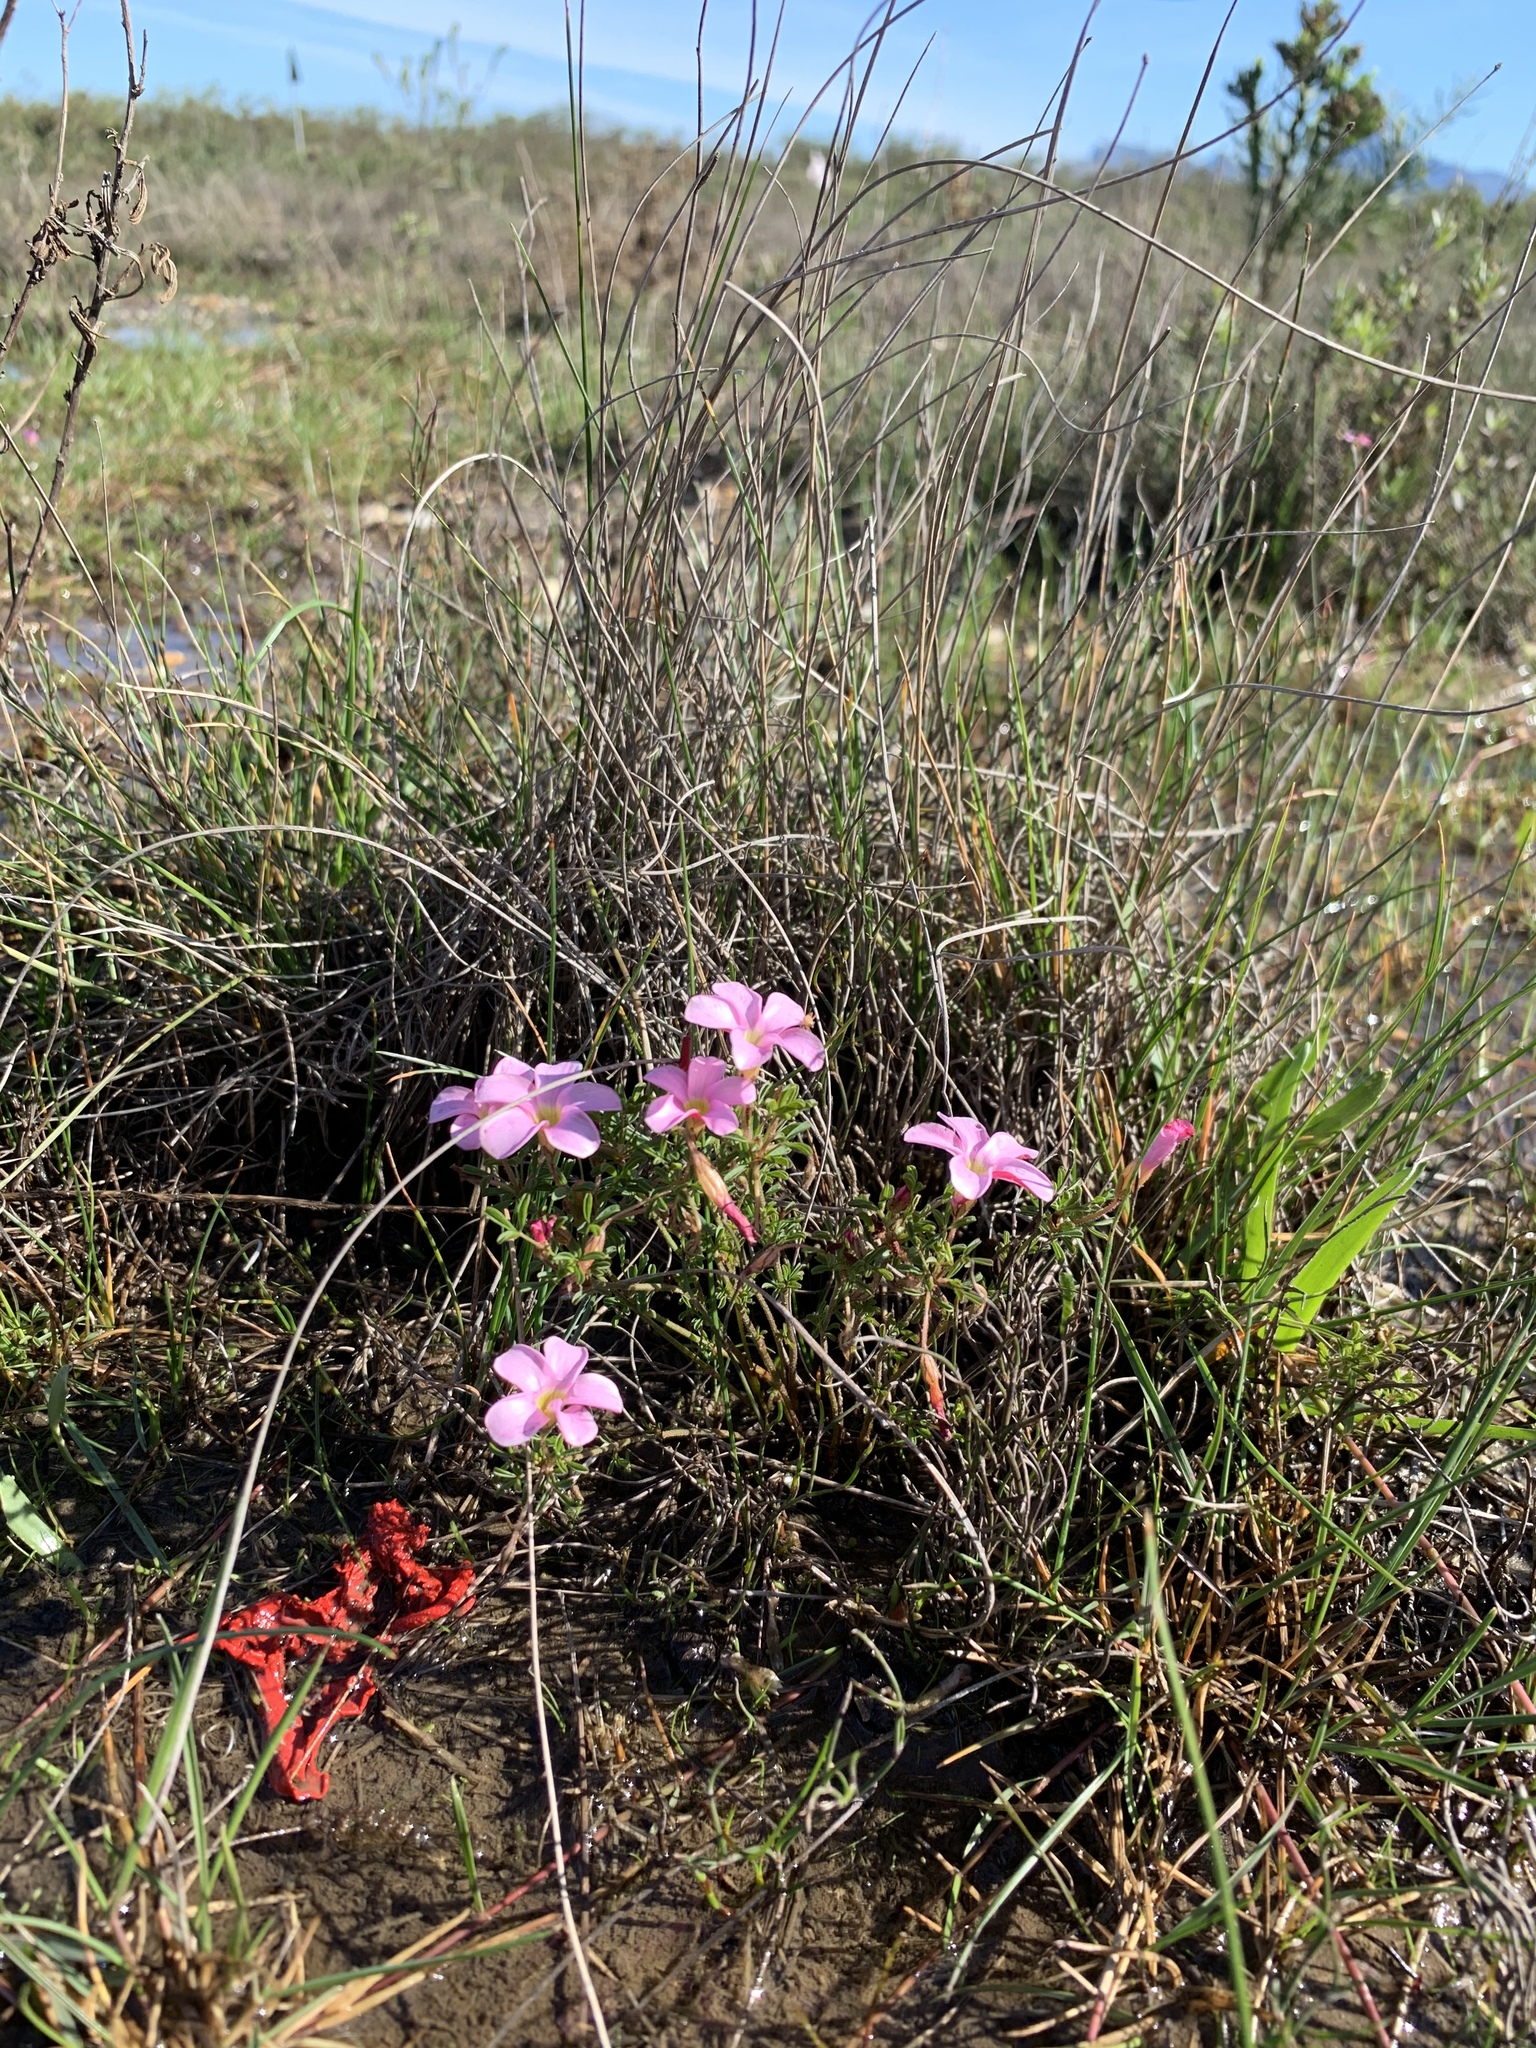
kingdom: Plantae
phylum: Tracheophyta
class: Magnoliopsida
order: Oxalidales
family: Oxalidaceae
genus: Oxalis
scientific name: Oxalis multicaulis
